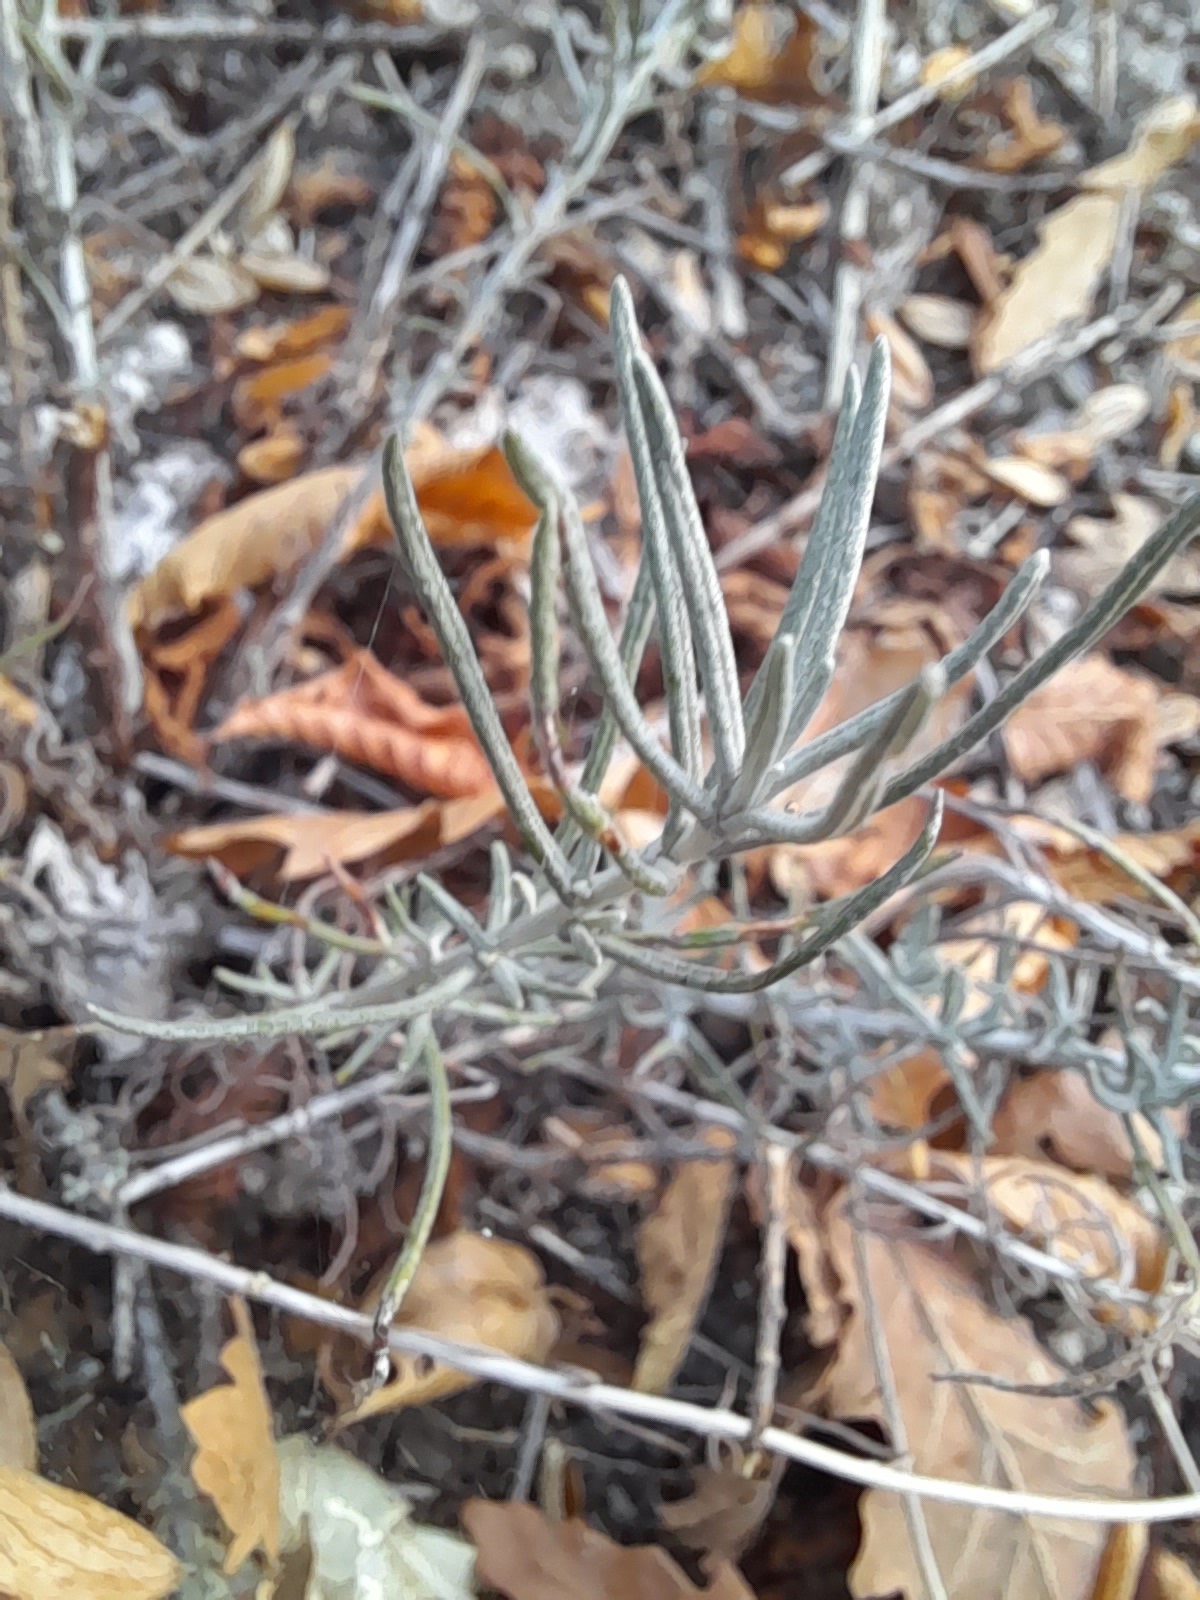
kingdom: Plantae
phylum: Tracheophyta
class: Magnoliopsida
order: Asterales
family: Asteraceae
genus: Helichrysum
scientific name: Helichrysum italicum
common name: Curryplant
